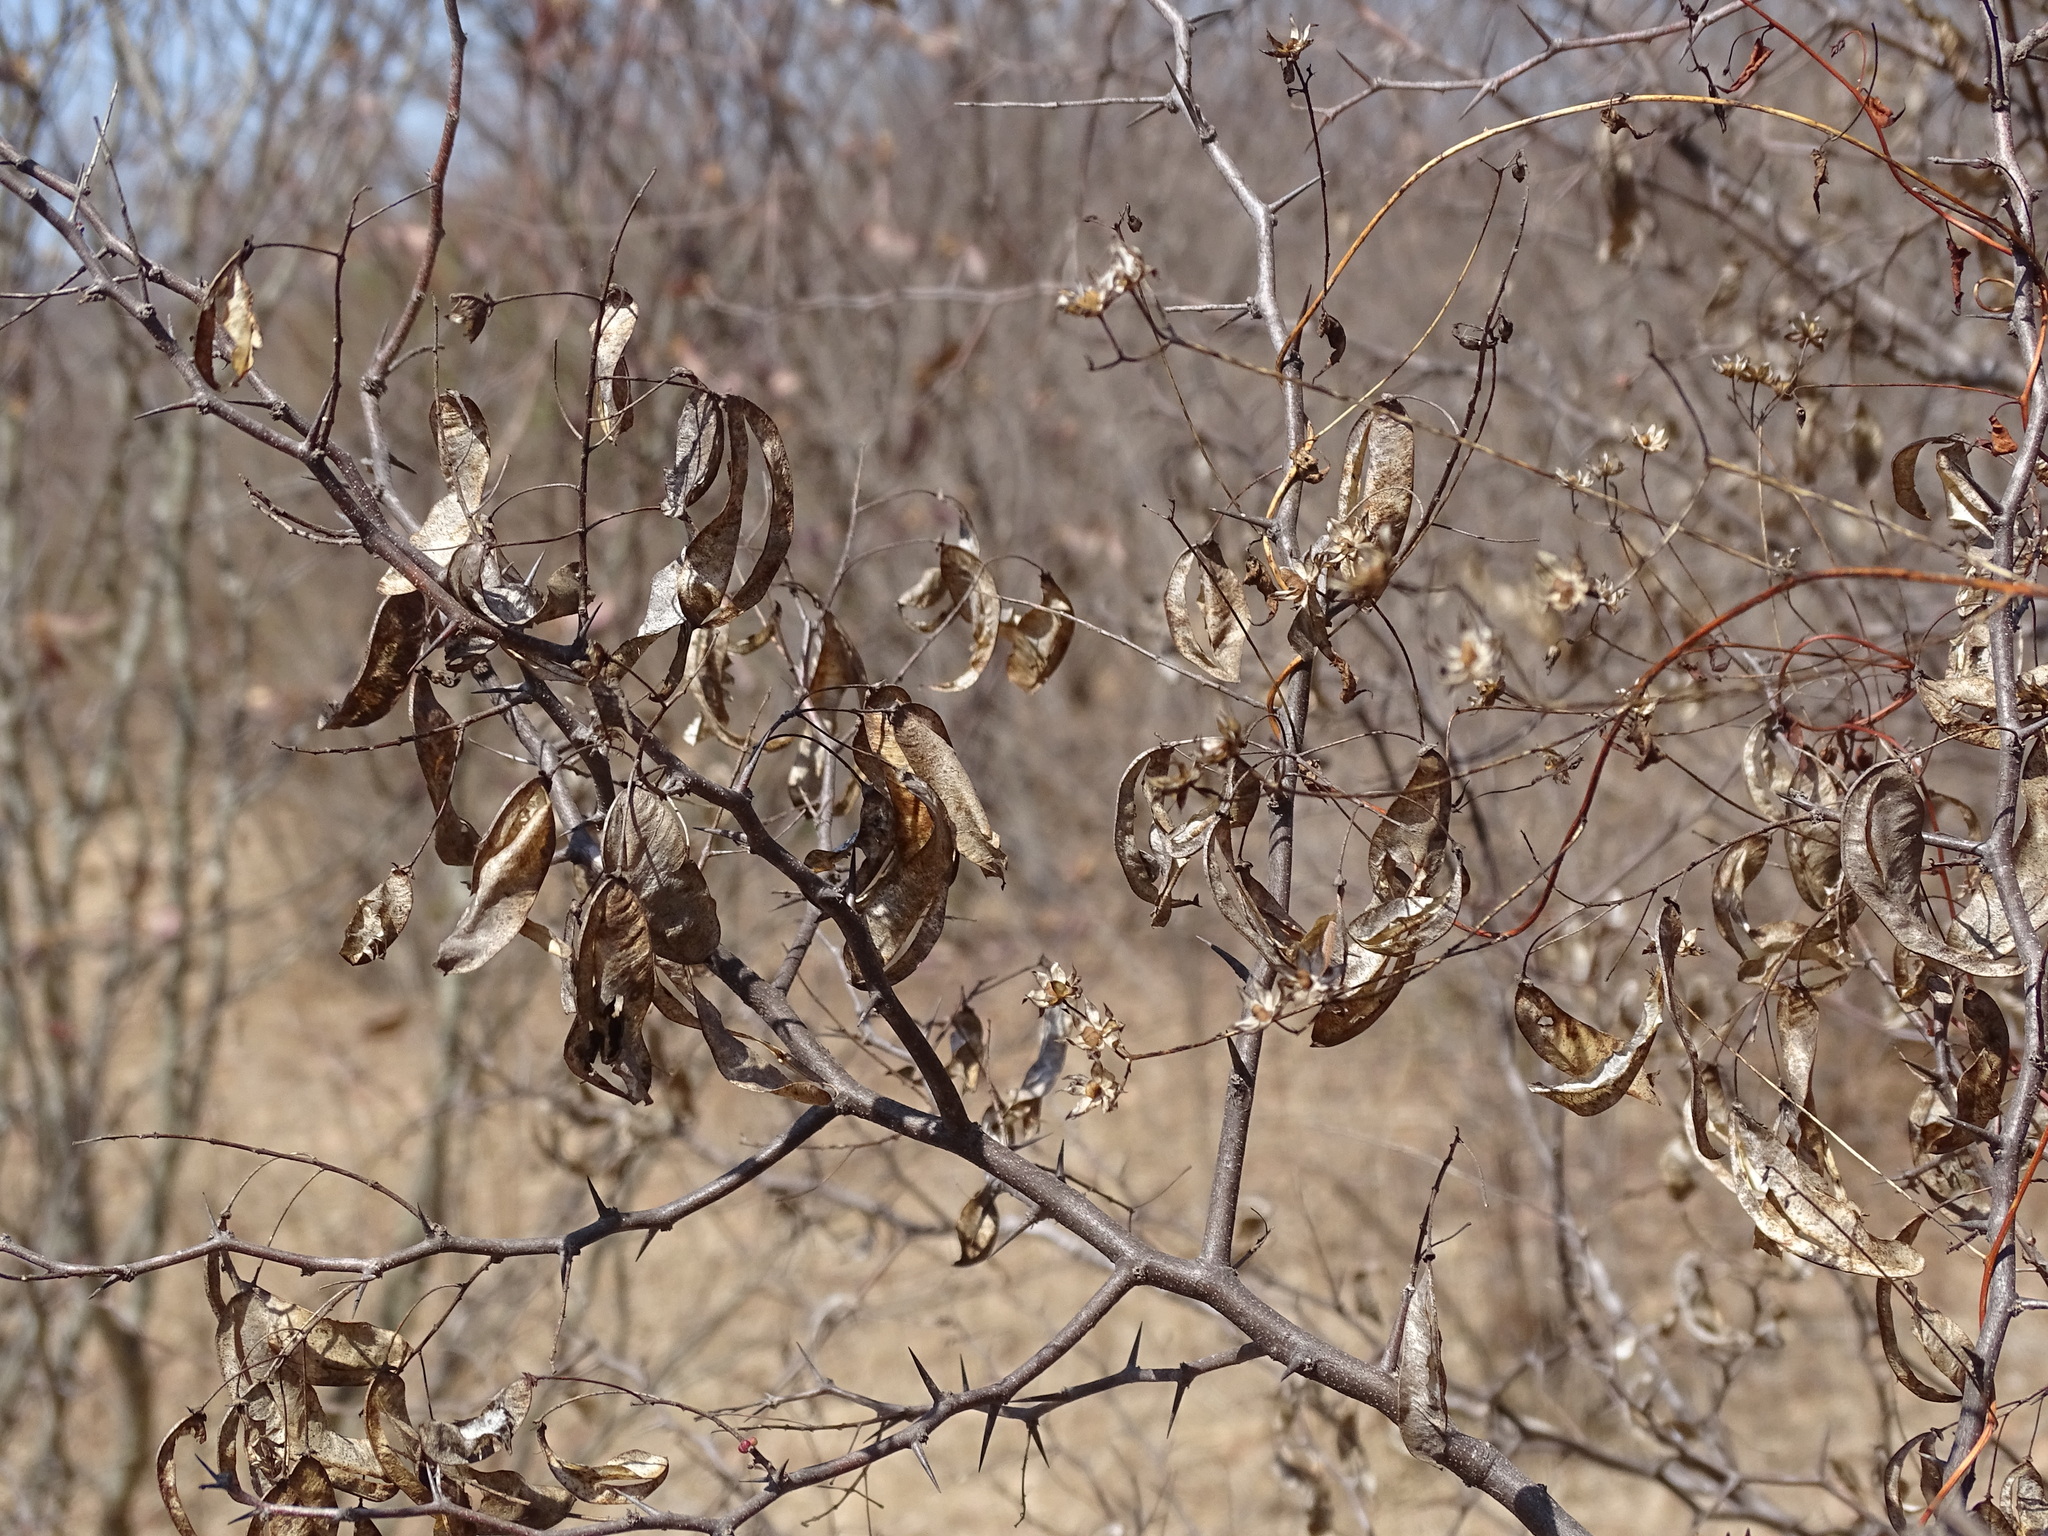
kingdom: Plantae
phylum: Tracheophyta
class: Magnoliopsida
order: Fabales
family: Fabaceae
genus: Haematoxylum
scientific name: Haematoxylum brasiletto
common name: Peachwood
